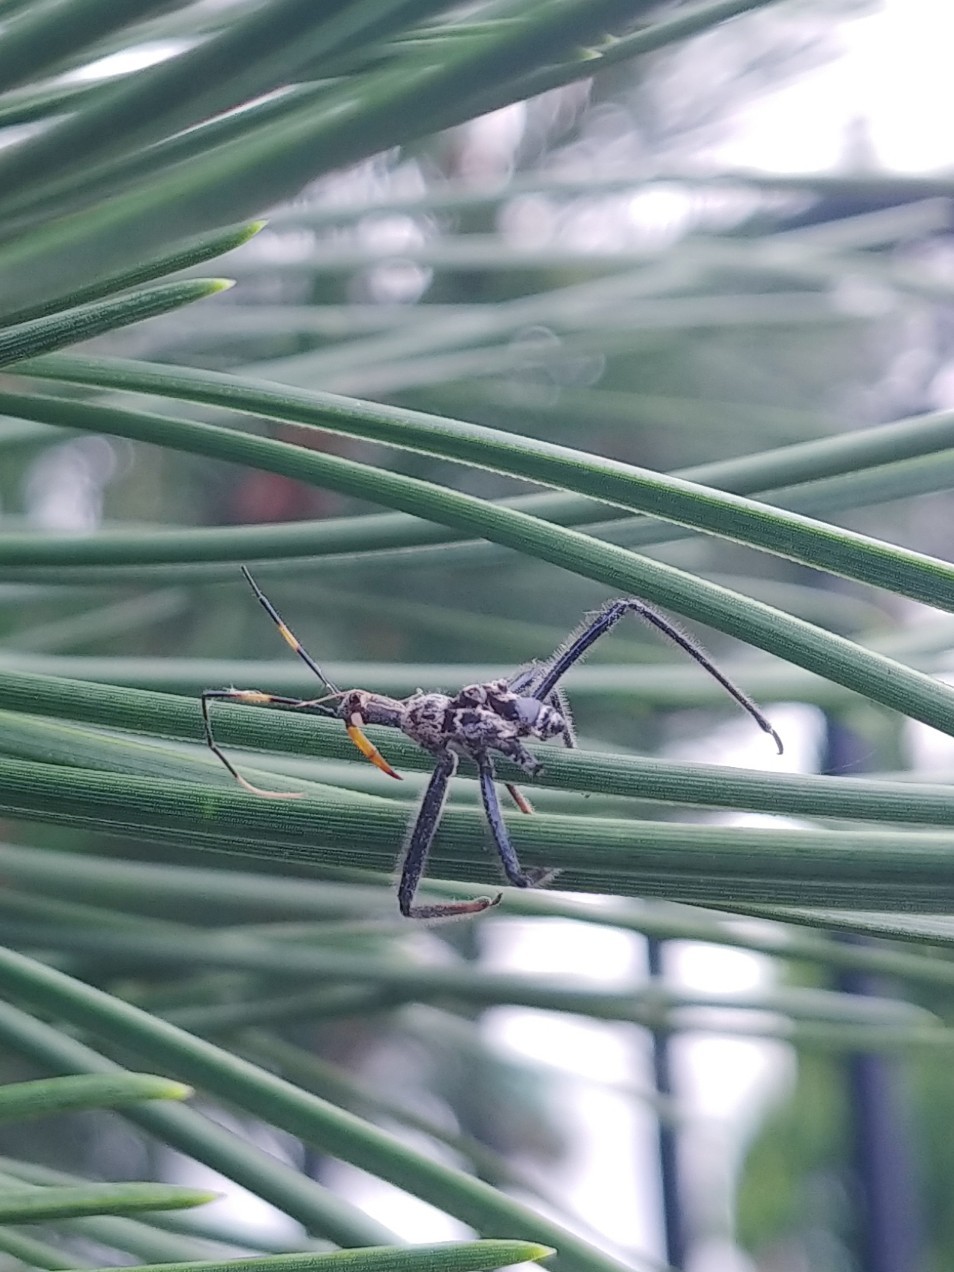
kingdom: Animalia
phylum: Arthropoda
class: Insecta
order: Hemiptera
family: Reduviidae
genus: Arilus
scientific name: Arilus cristatus
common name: North american wheel bug
